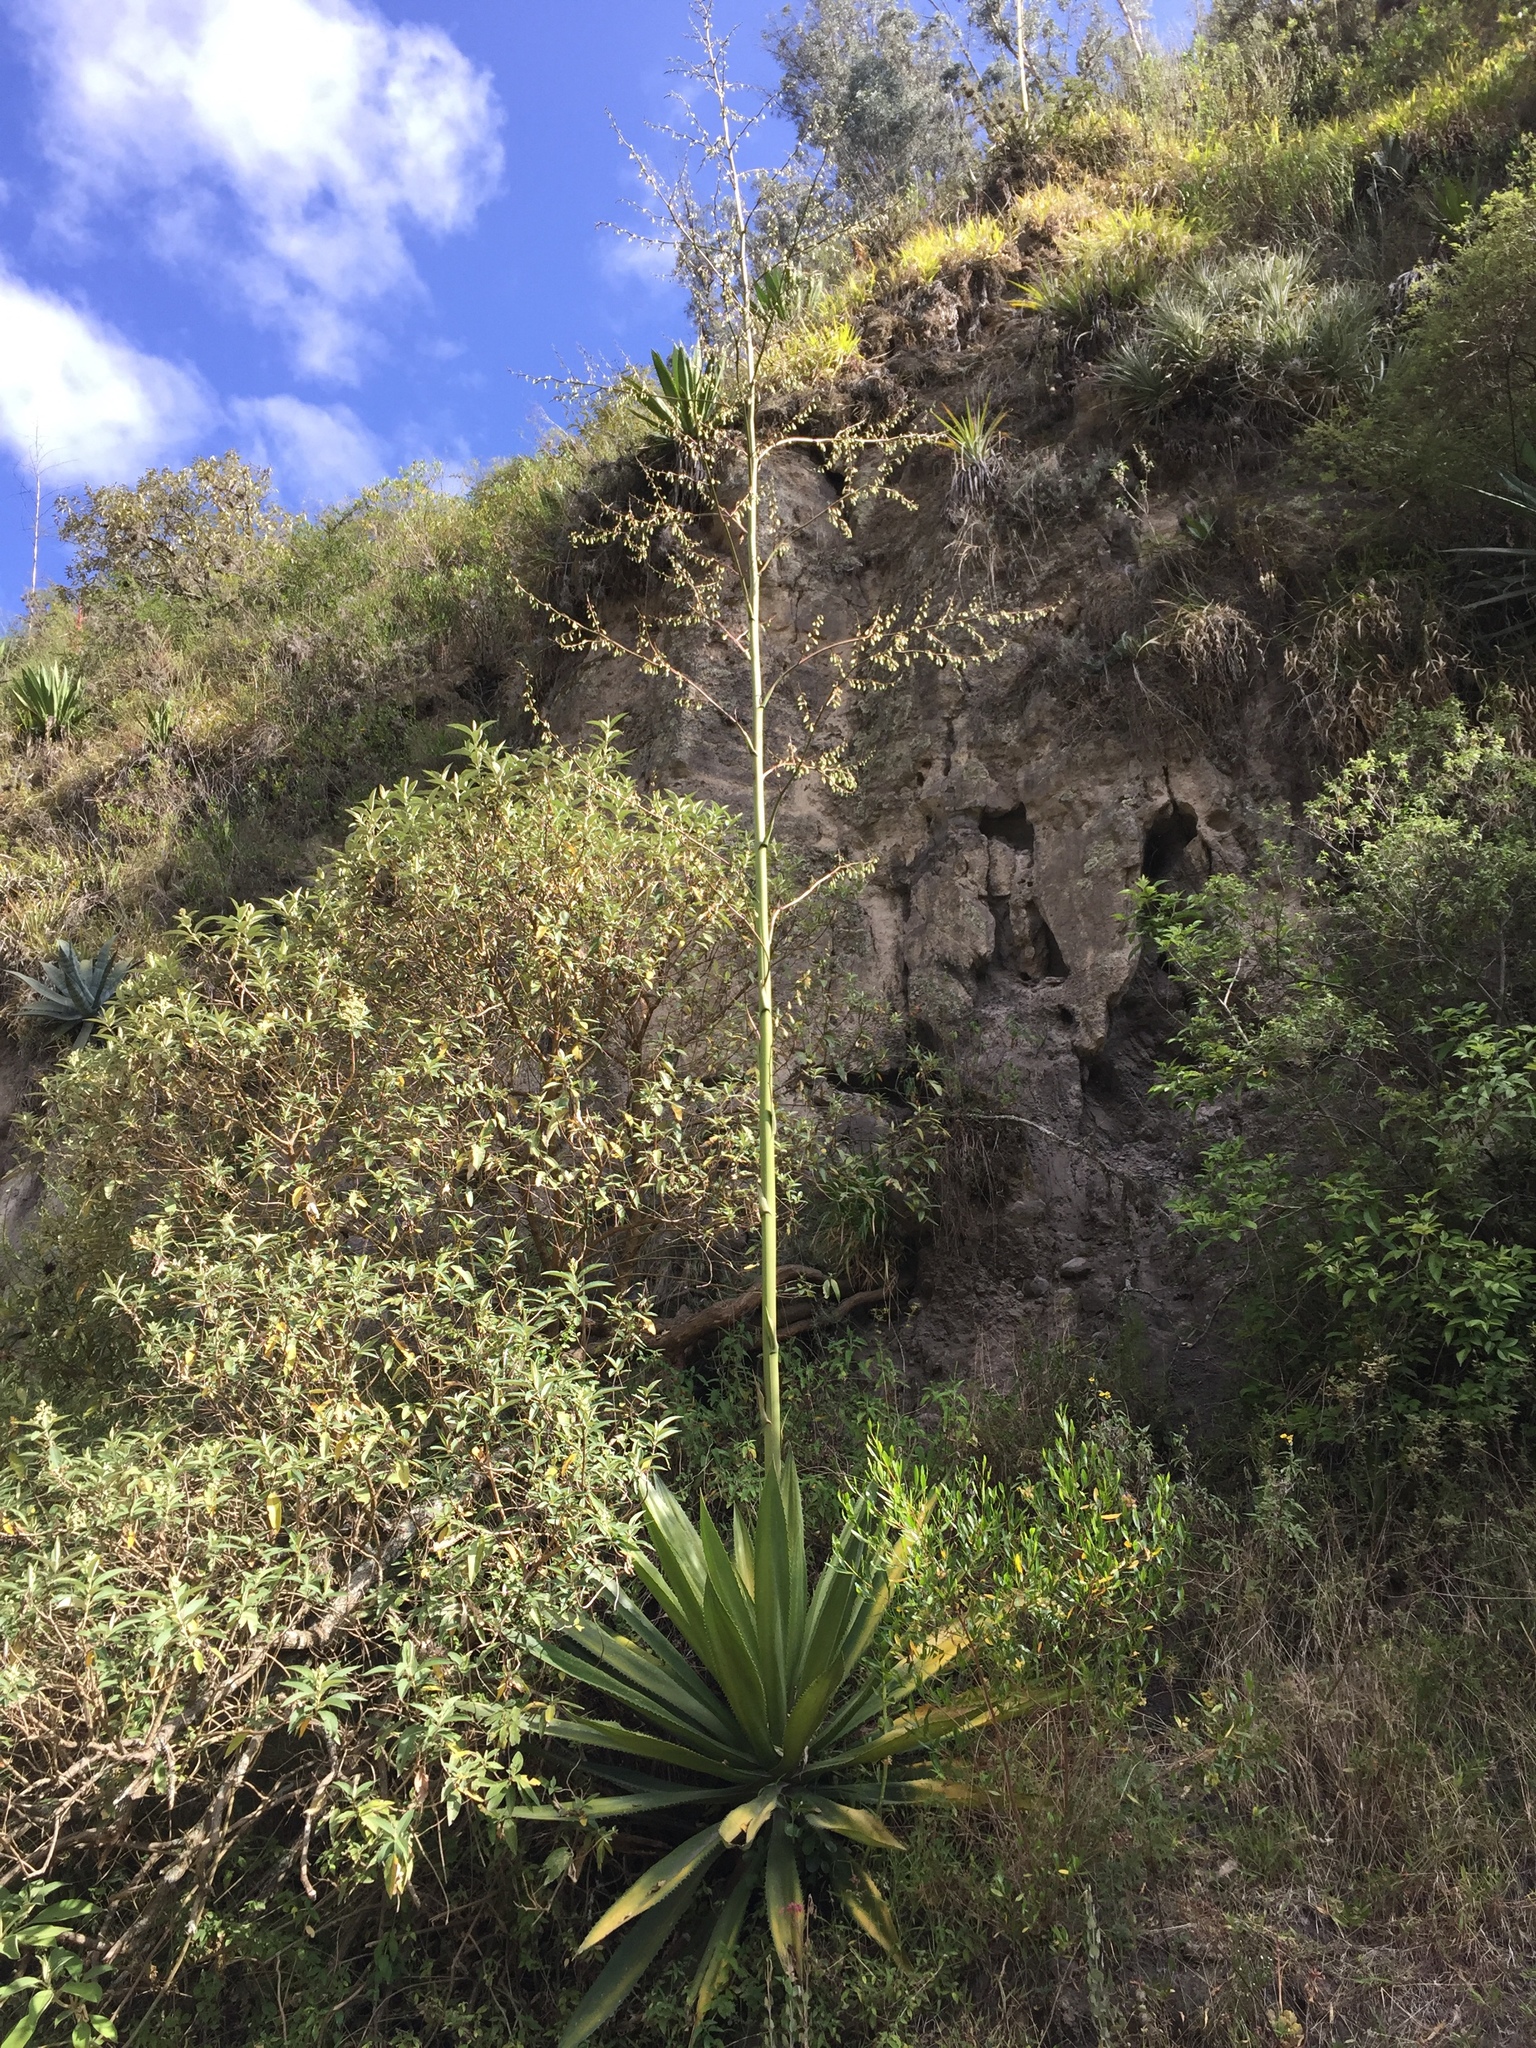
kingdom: Plantae
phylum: Tracheophyta
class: Liliopsida
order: Asparagales
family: Asparagaceae
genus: Furcraea
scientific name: Furcraea andina
